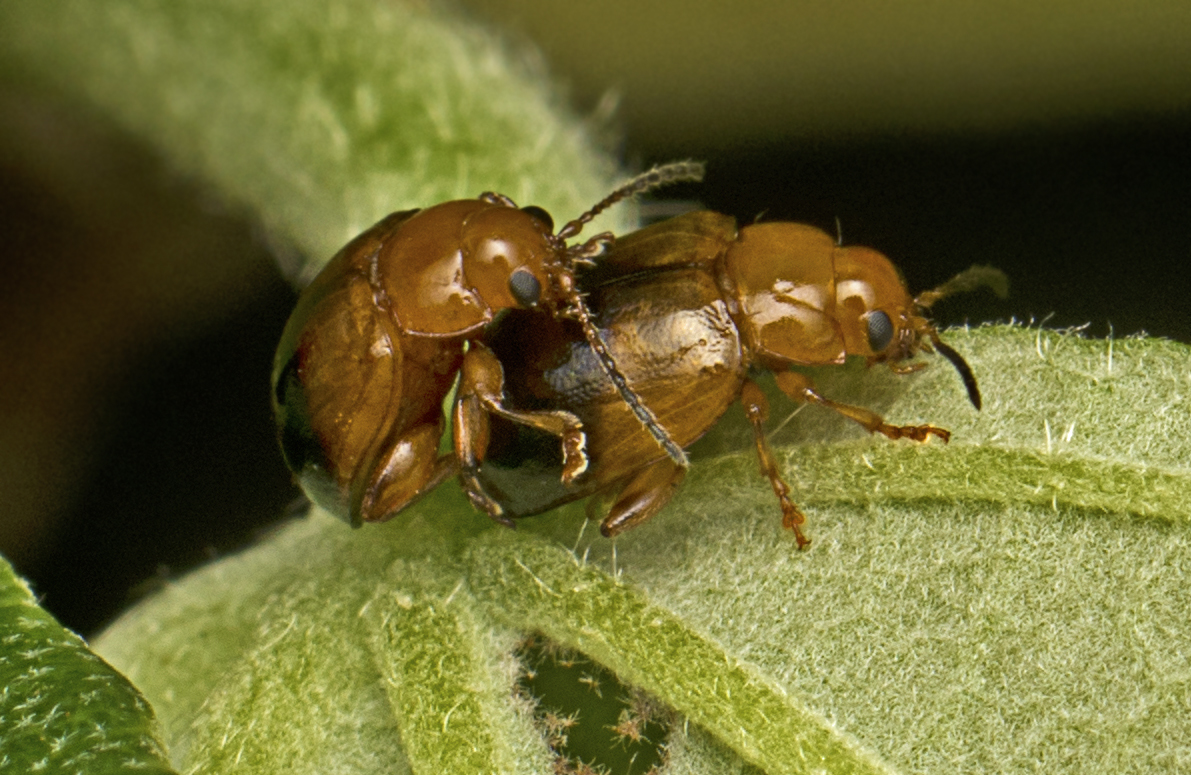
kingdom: Animalia
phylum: Arthropoda
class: Insecta
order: Coleoptera
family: Chrysomelidae
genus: Nisotra
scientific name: Nisotra
